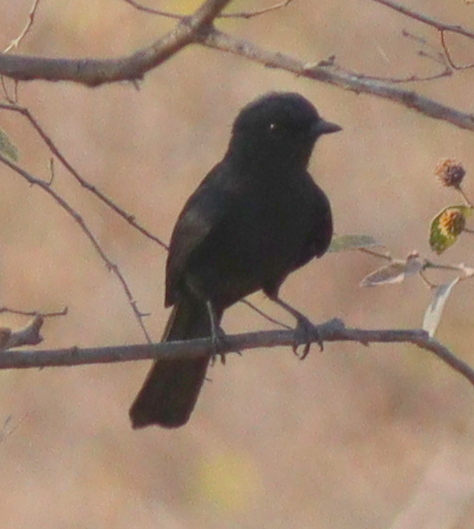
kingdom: Animalia
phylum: Chordata
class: Aves
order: Passeriformes
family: Muscicapidae
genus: Melaenornis
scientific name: Melaenornis edolioides
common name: Northern black flycatcher
